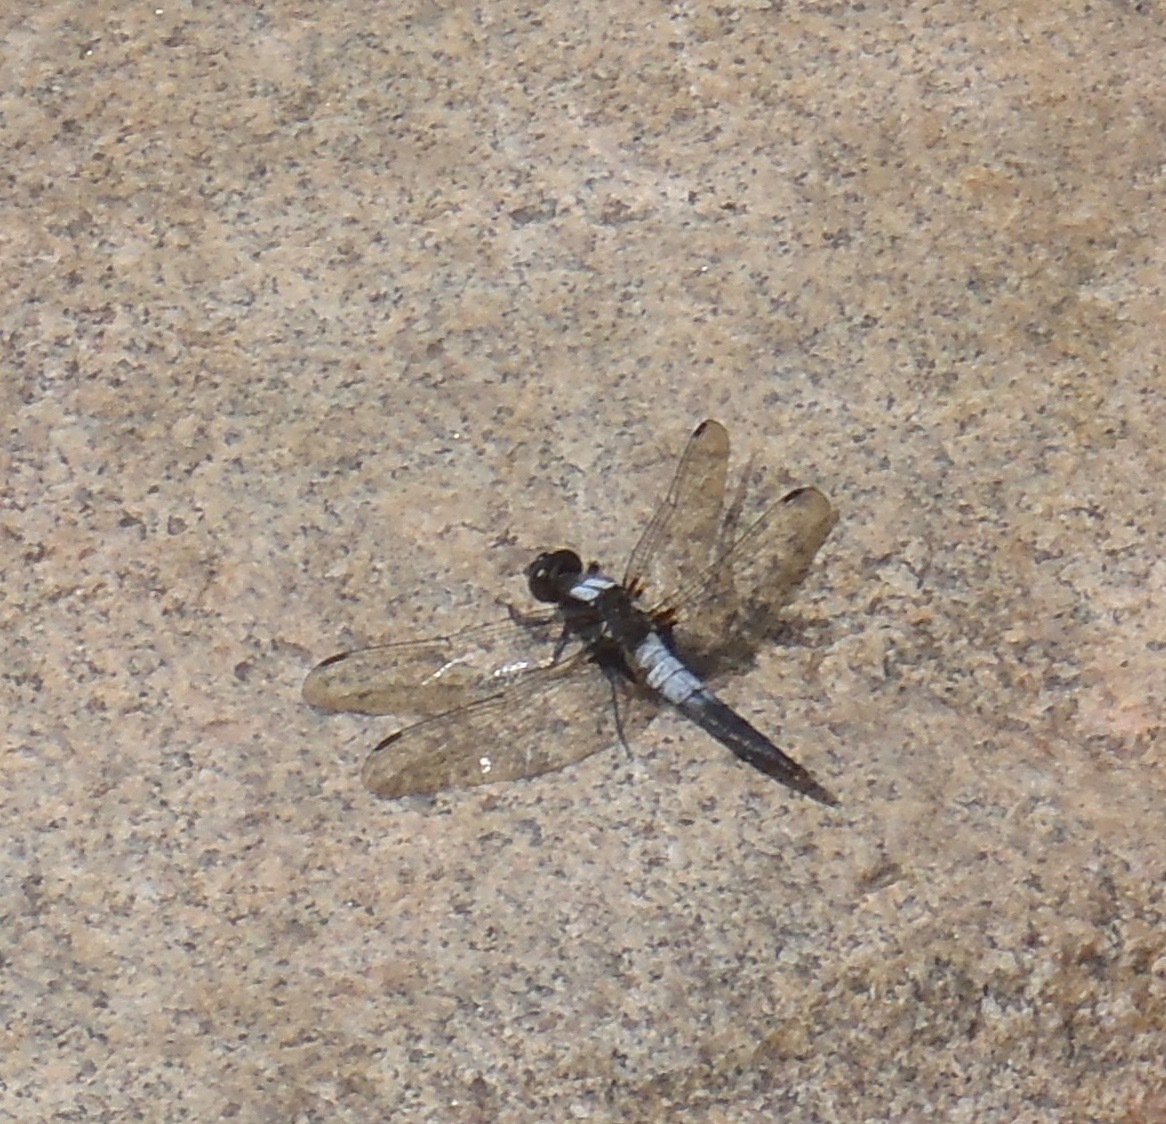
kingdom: Animalia
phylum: Arthropoda
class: Insecta
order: Odonata
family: Libellulidae
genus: Ladona
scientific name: Ladona julia
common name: Chalk-fronted corporal
